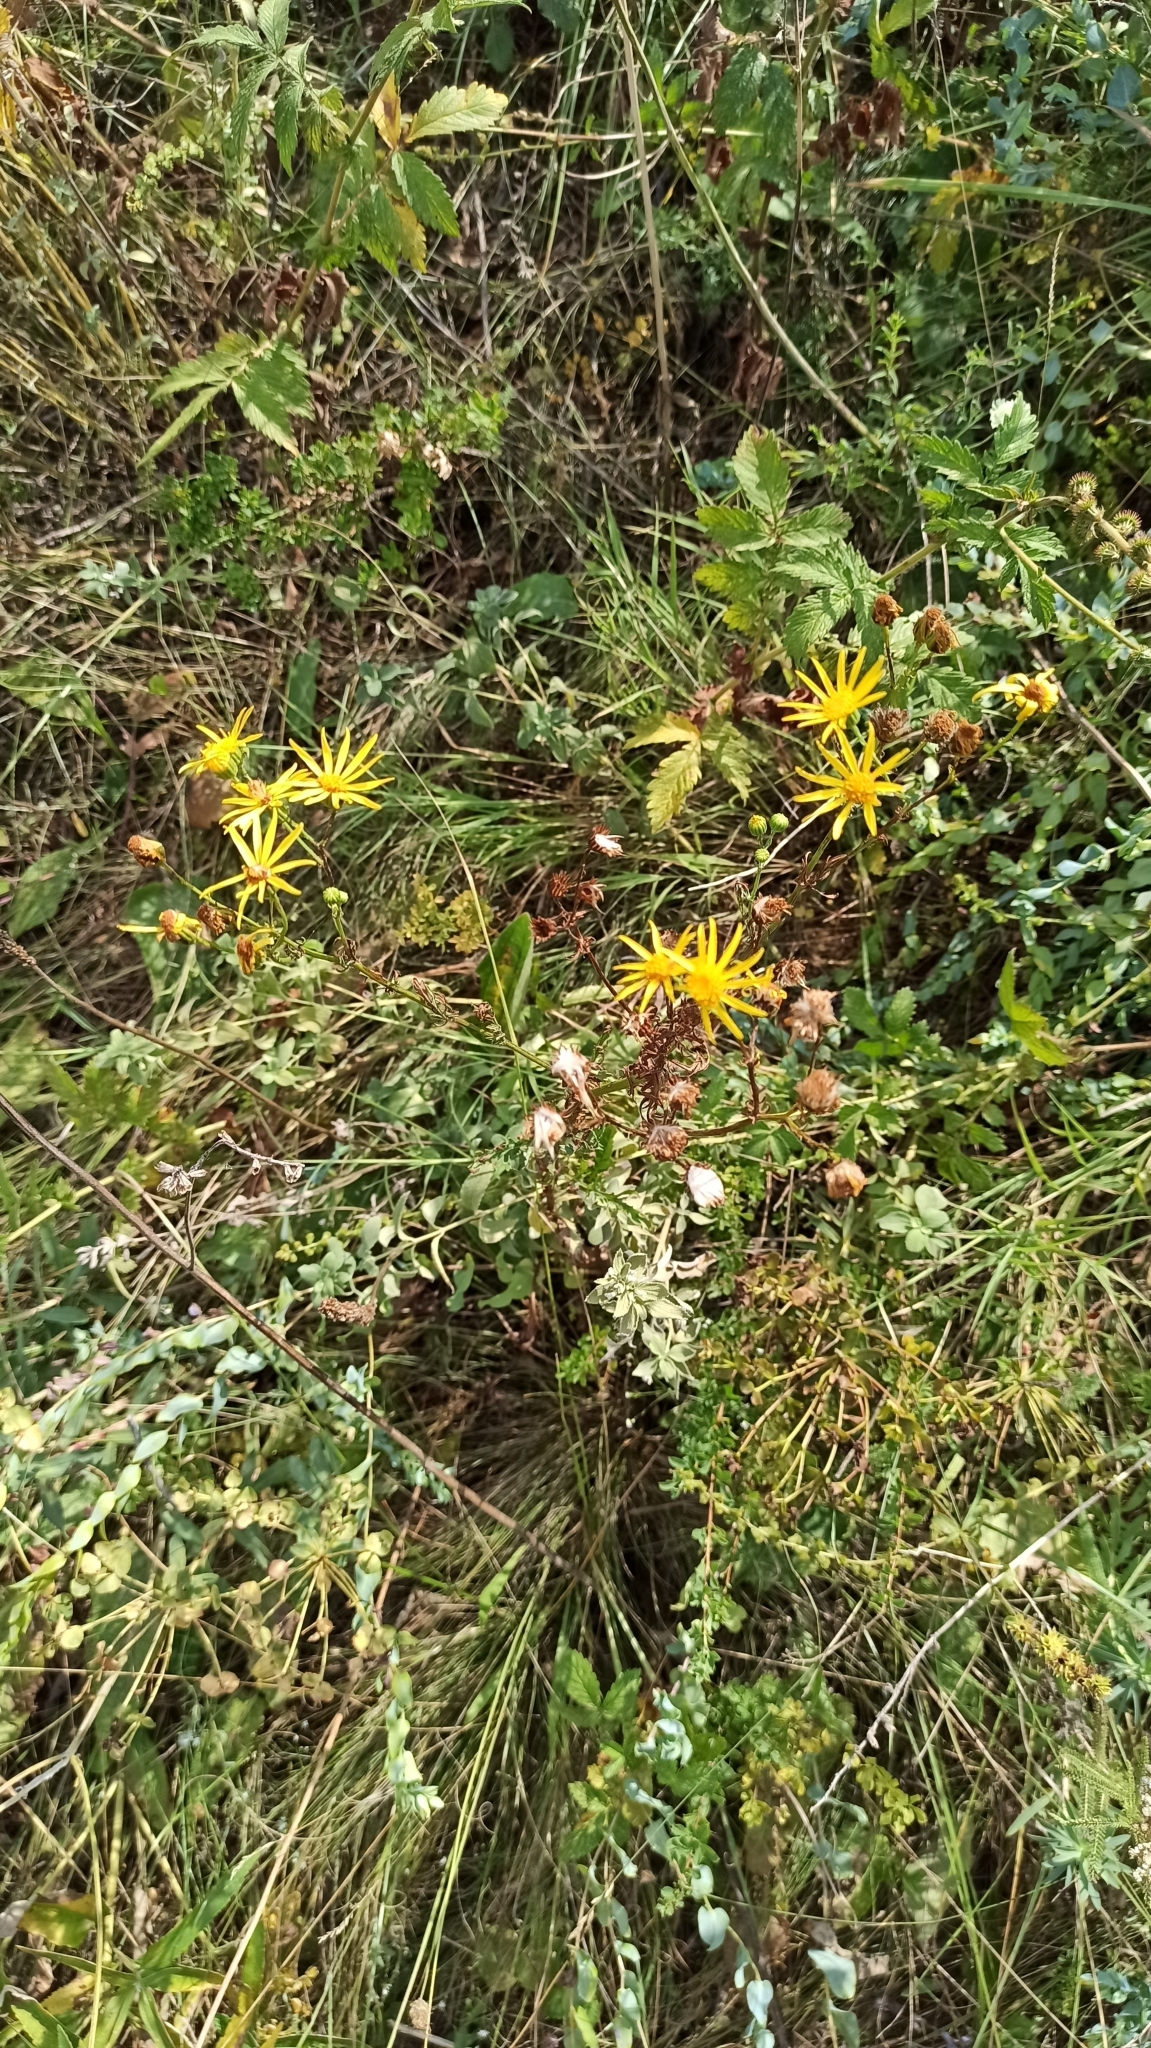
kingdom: Plantae
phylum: Tracheophyta
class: Magnoliopsida
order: Asterales
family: Asteraceae
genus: Jacobaea
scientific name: Jacobaea vulgaris
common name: Stinking willie
